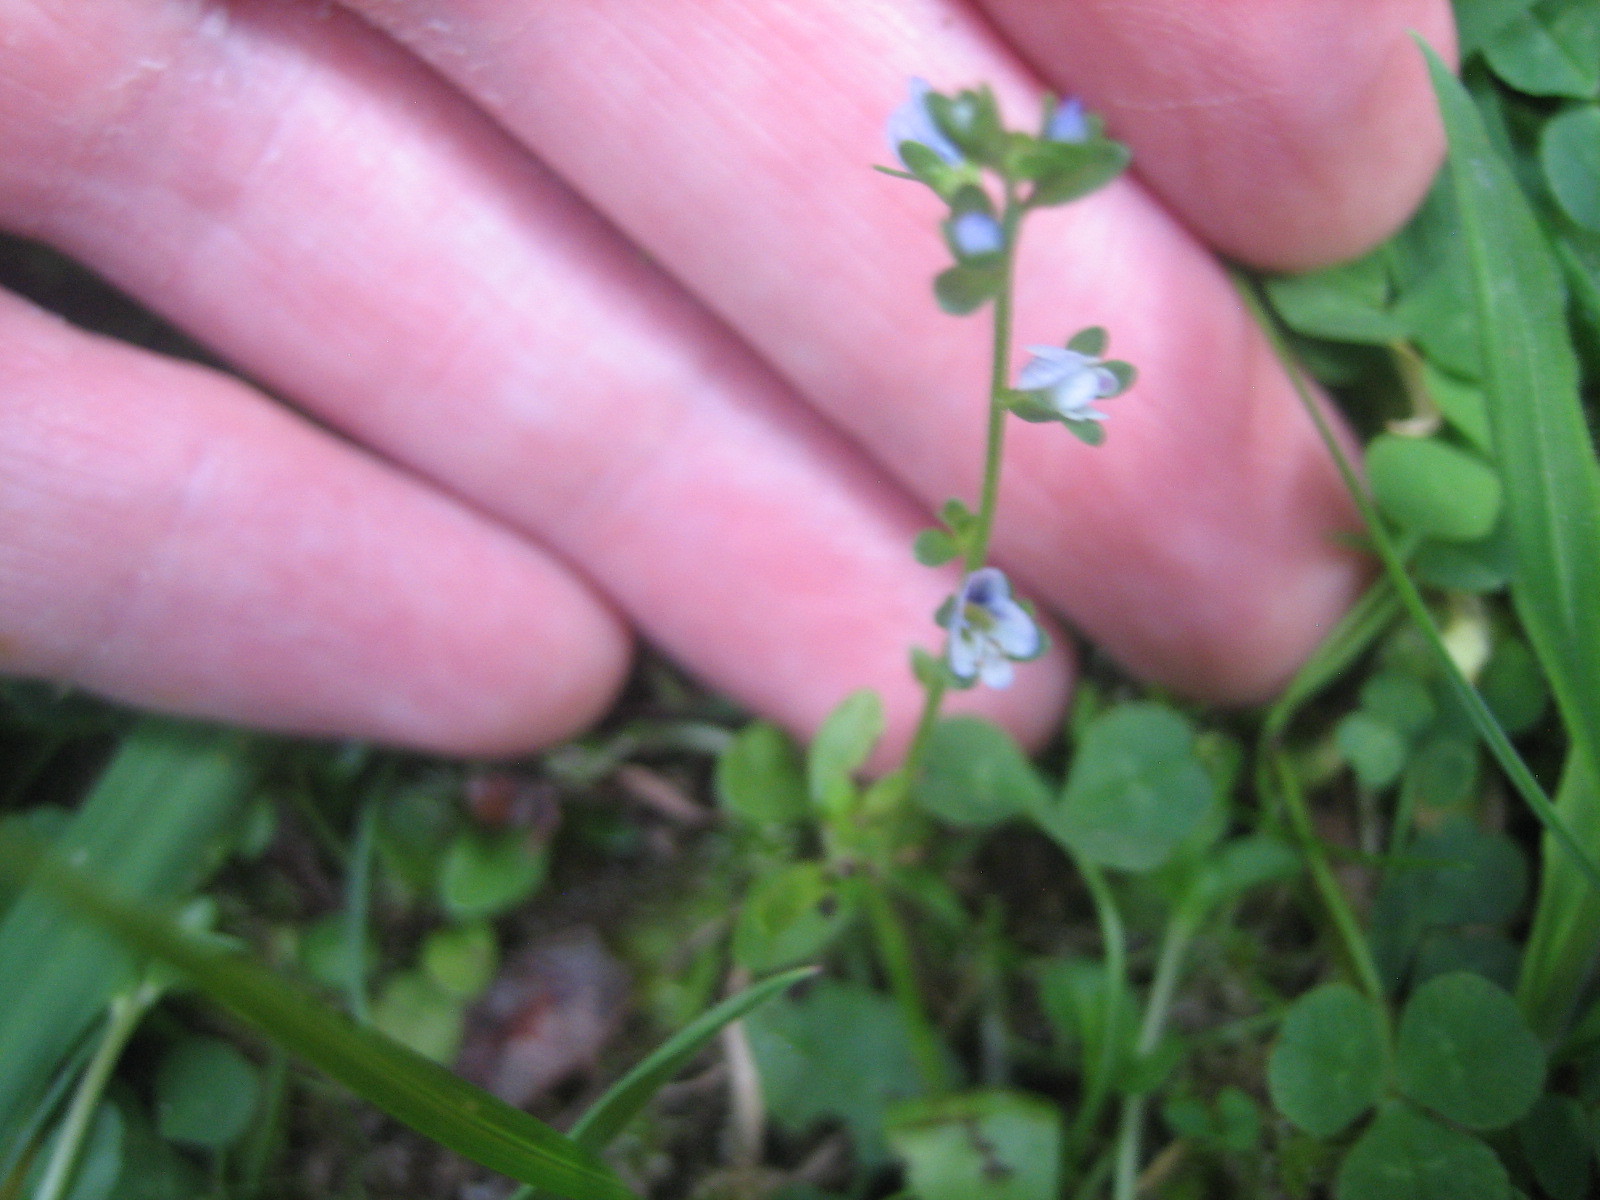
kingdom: Plantae
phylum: Tracheophyta
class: Magnoliopsida
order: Lamiales
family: Plantaginaceae
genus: Veronica
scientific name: Veronica serpyllifolia
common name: Thyme-leaved speedwell
